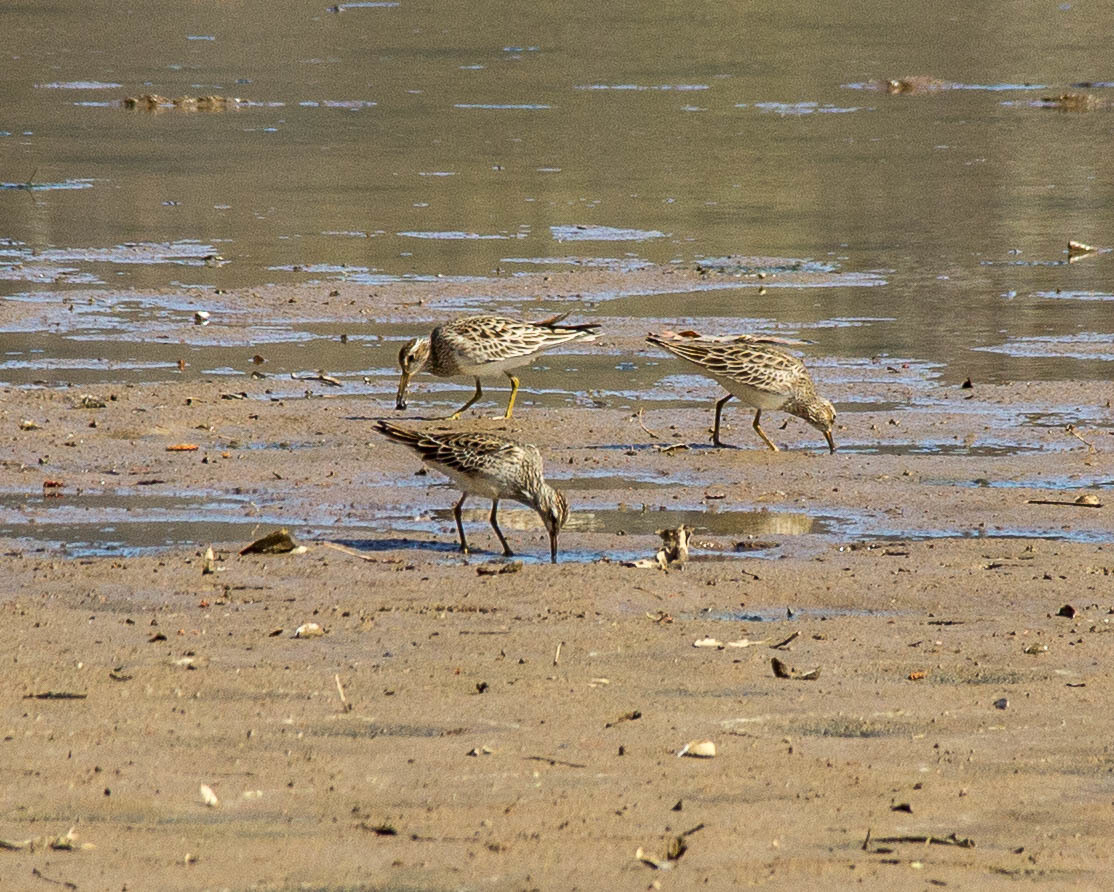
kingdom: Animalia
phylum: Chordata
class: Aves
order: Charadriiformes
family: Scolopacidae
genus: Calidris
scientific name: Calidris melanotos
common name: Pectoral sandpiper
